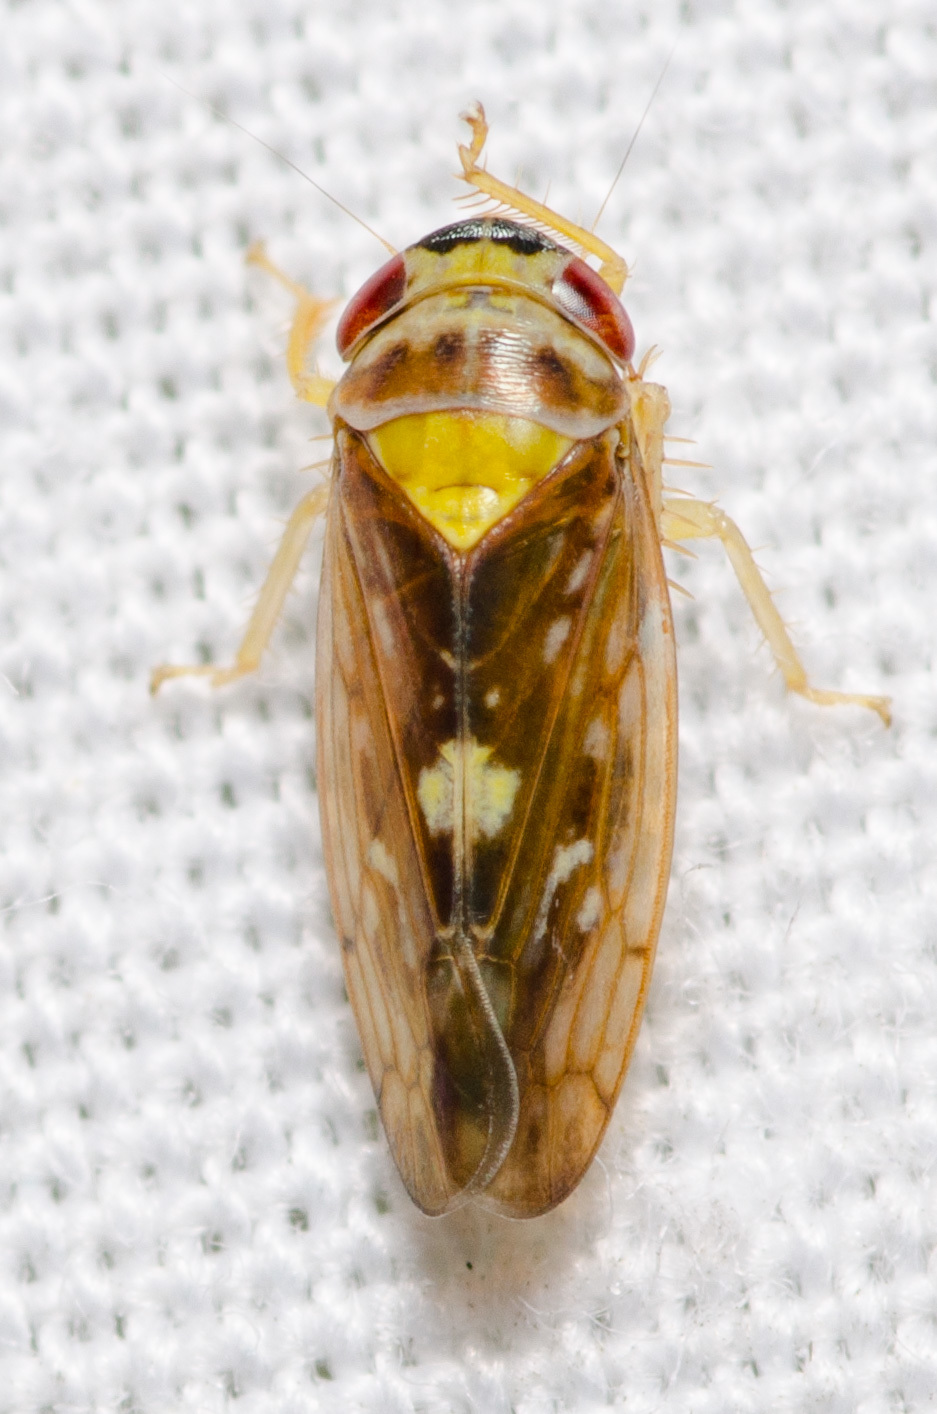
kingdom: Animalia
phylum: Arthropoda
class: Insecta
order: Hemiptera
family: Cicadellidae
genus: Eutettix
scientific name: Eutettix slossoni
